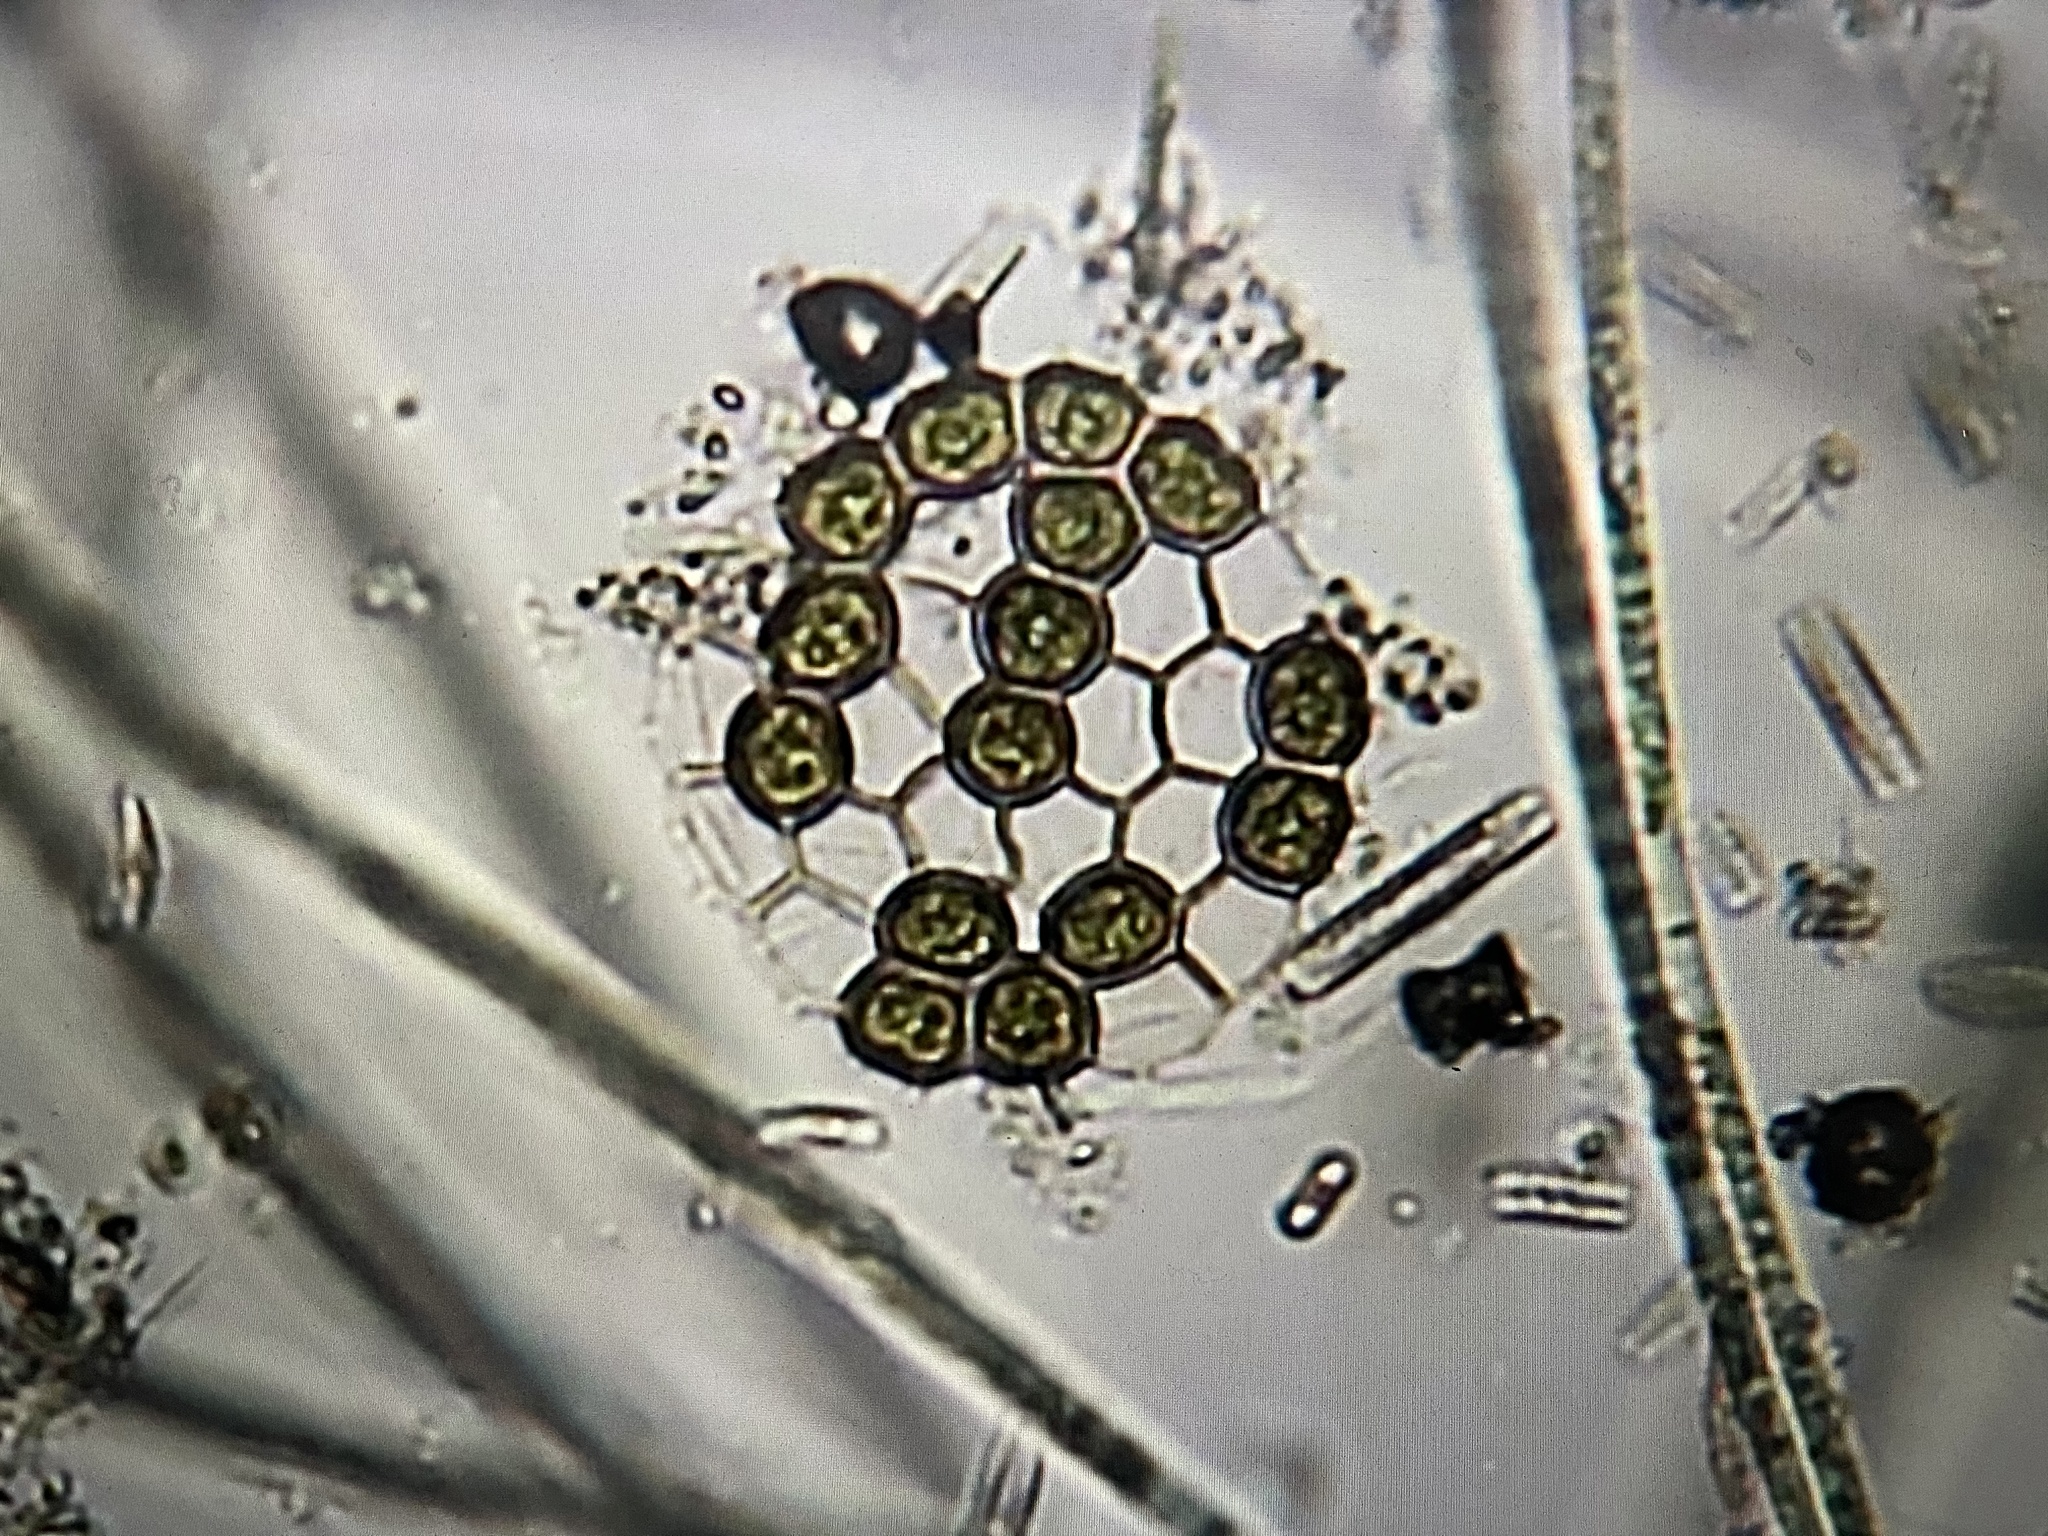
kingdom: Plantae
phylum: Chlorophyta
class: Chlorophyceae
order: Sphaeropleales
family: Hydrodictyaceae
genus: Pseudopediastrum
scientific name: Pseudopediastrum integrum
